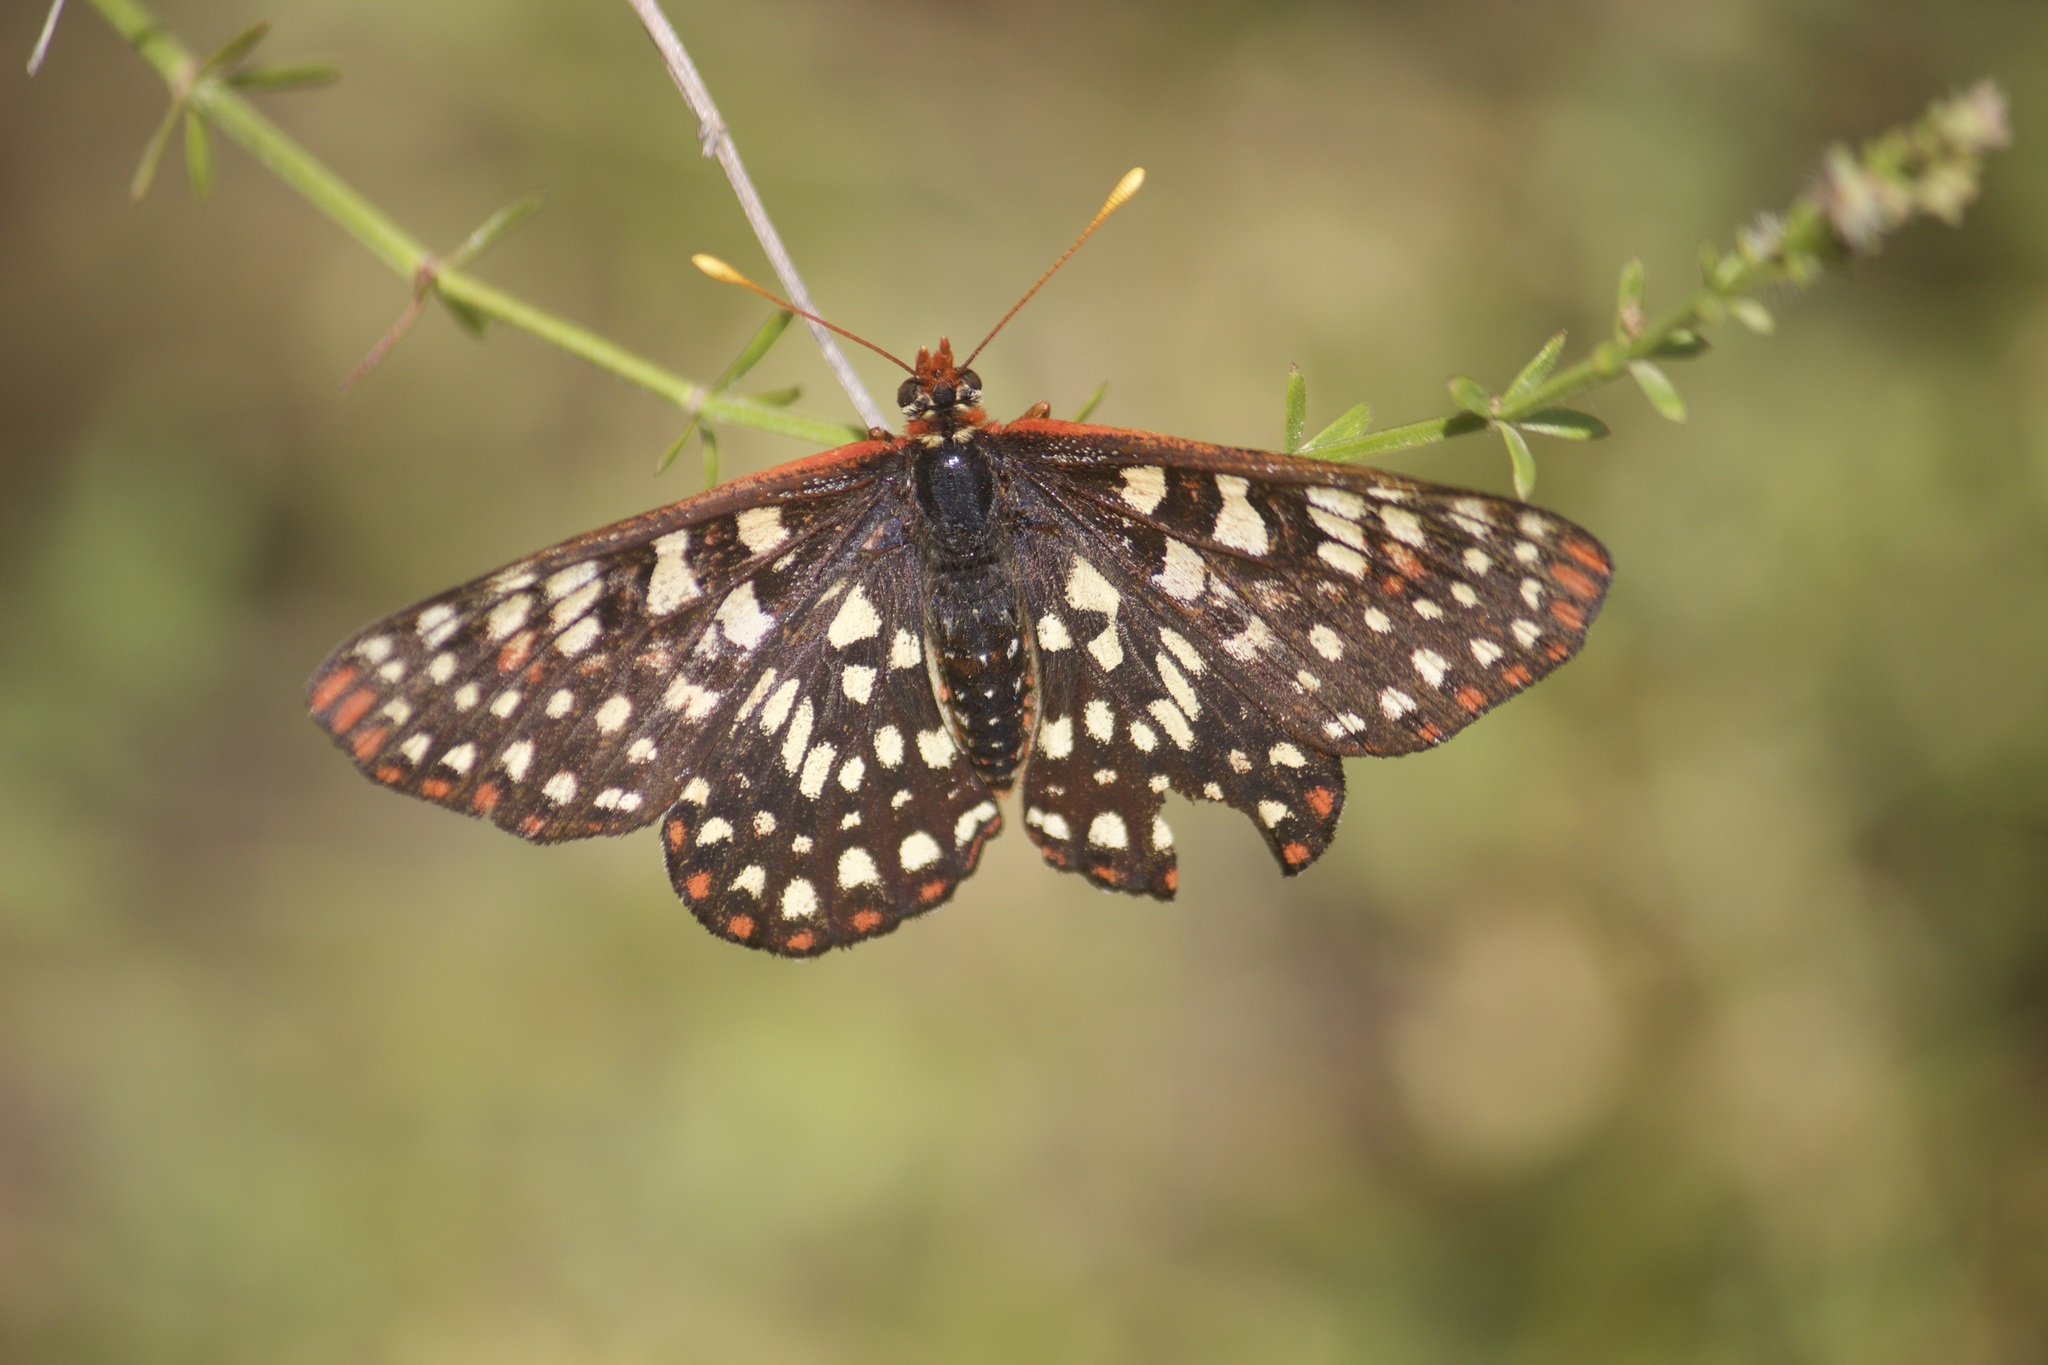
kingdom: Animalia
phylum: Arthropoda
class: Insecta
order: Lepidoptera
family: Nymphalidae
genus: Occidryas
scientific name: Occidryas chalcedona
